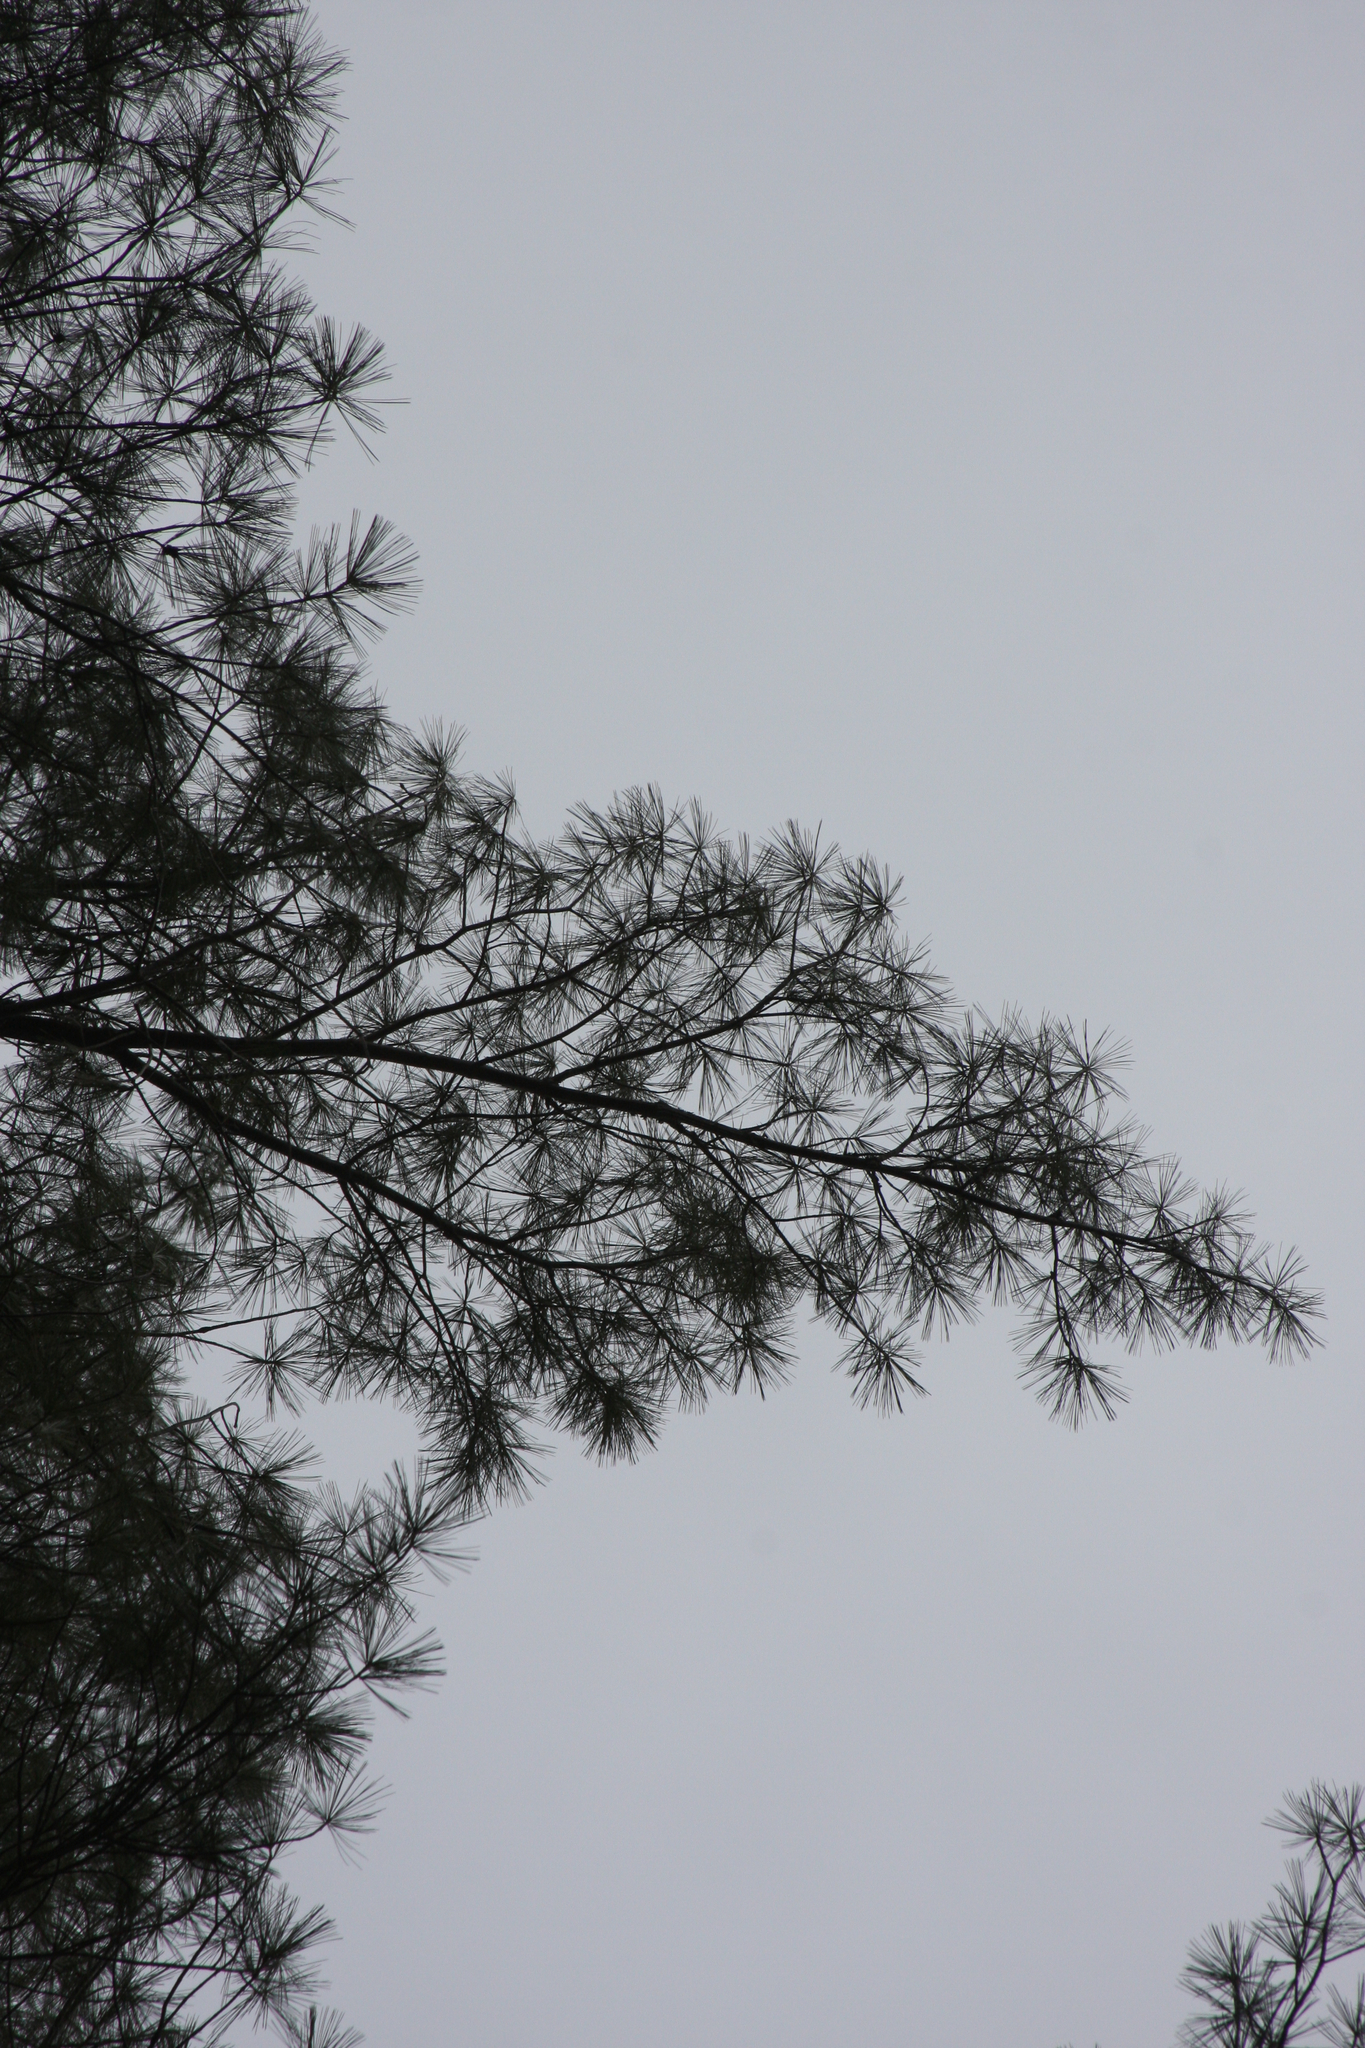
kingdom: Plantae
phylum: Tracheophyta
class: Pinopsida
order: Pinales
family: Pinaceae
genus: Pinus
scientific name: Pinus strobus
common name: Weymouth pine
